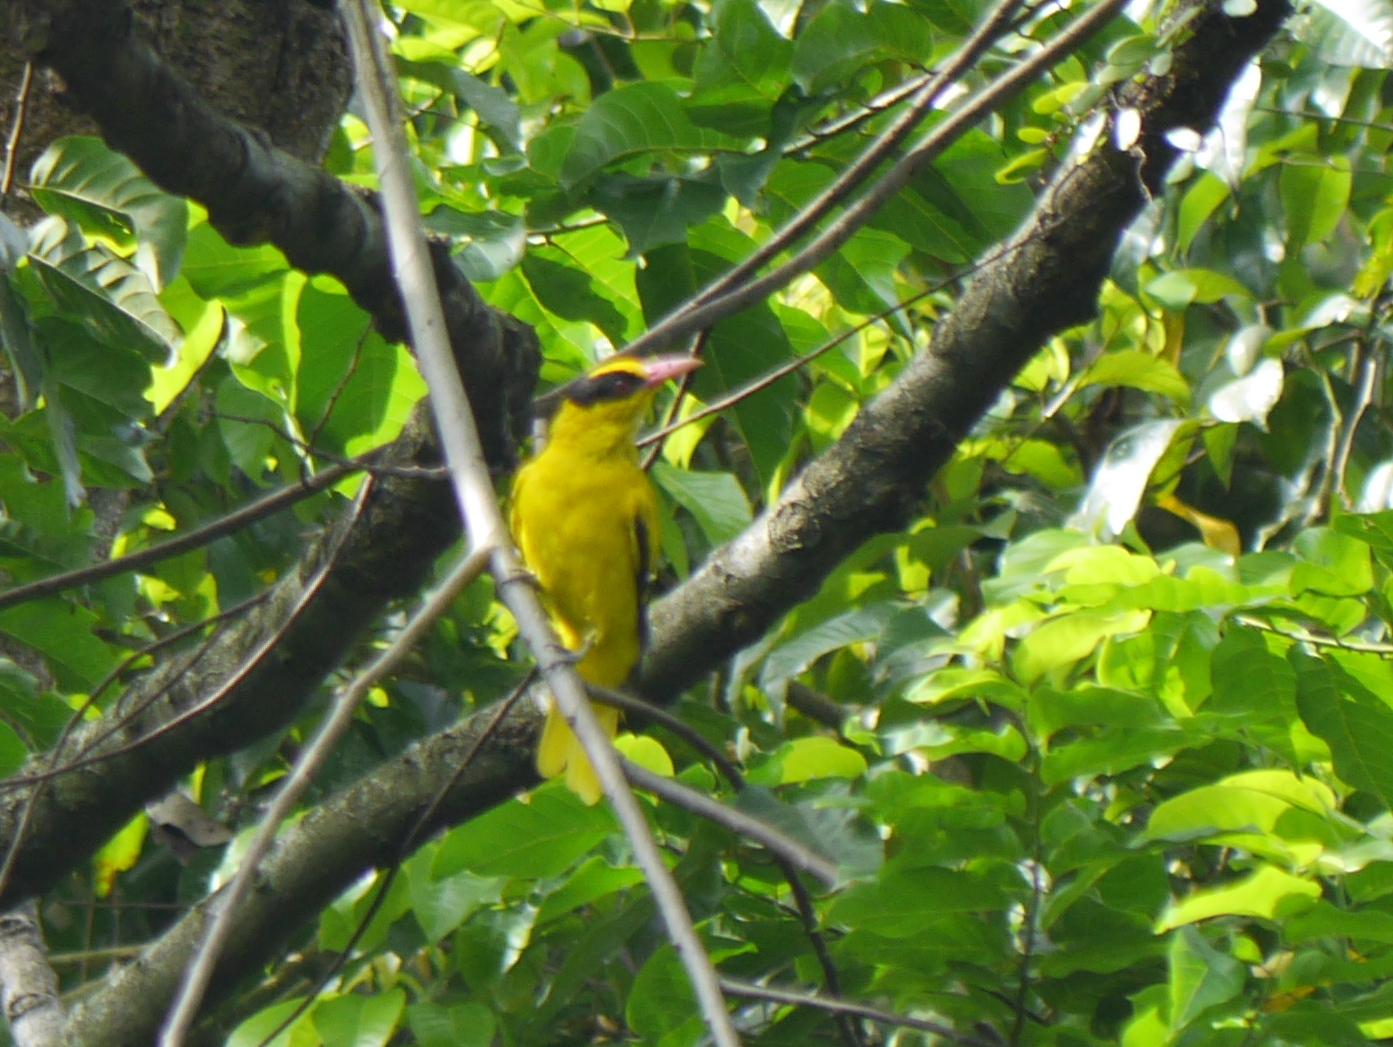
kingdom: Animalia
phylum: Chordata
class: Aves
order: Passeriformes
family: Oriolidae
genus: Oriolus
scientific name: Oriolus chinensis
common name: Black-naped oriole
